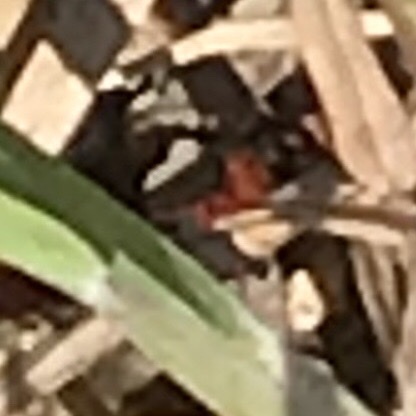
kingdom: Animalia
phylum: Arthropoda
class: Insecta
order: Hymenoptera
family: Mutillidae
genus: Dasymutilla
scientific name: Dasymutilla occidentalis
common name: Common eastern velvet ant
